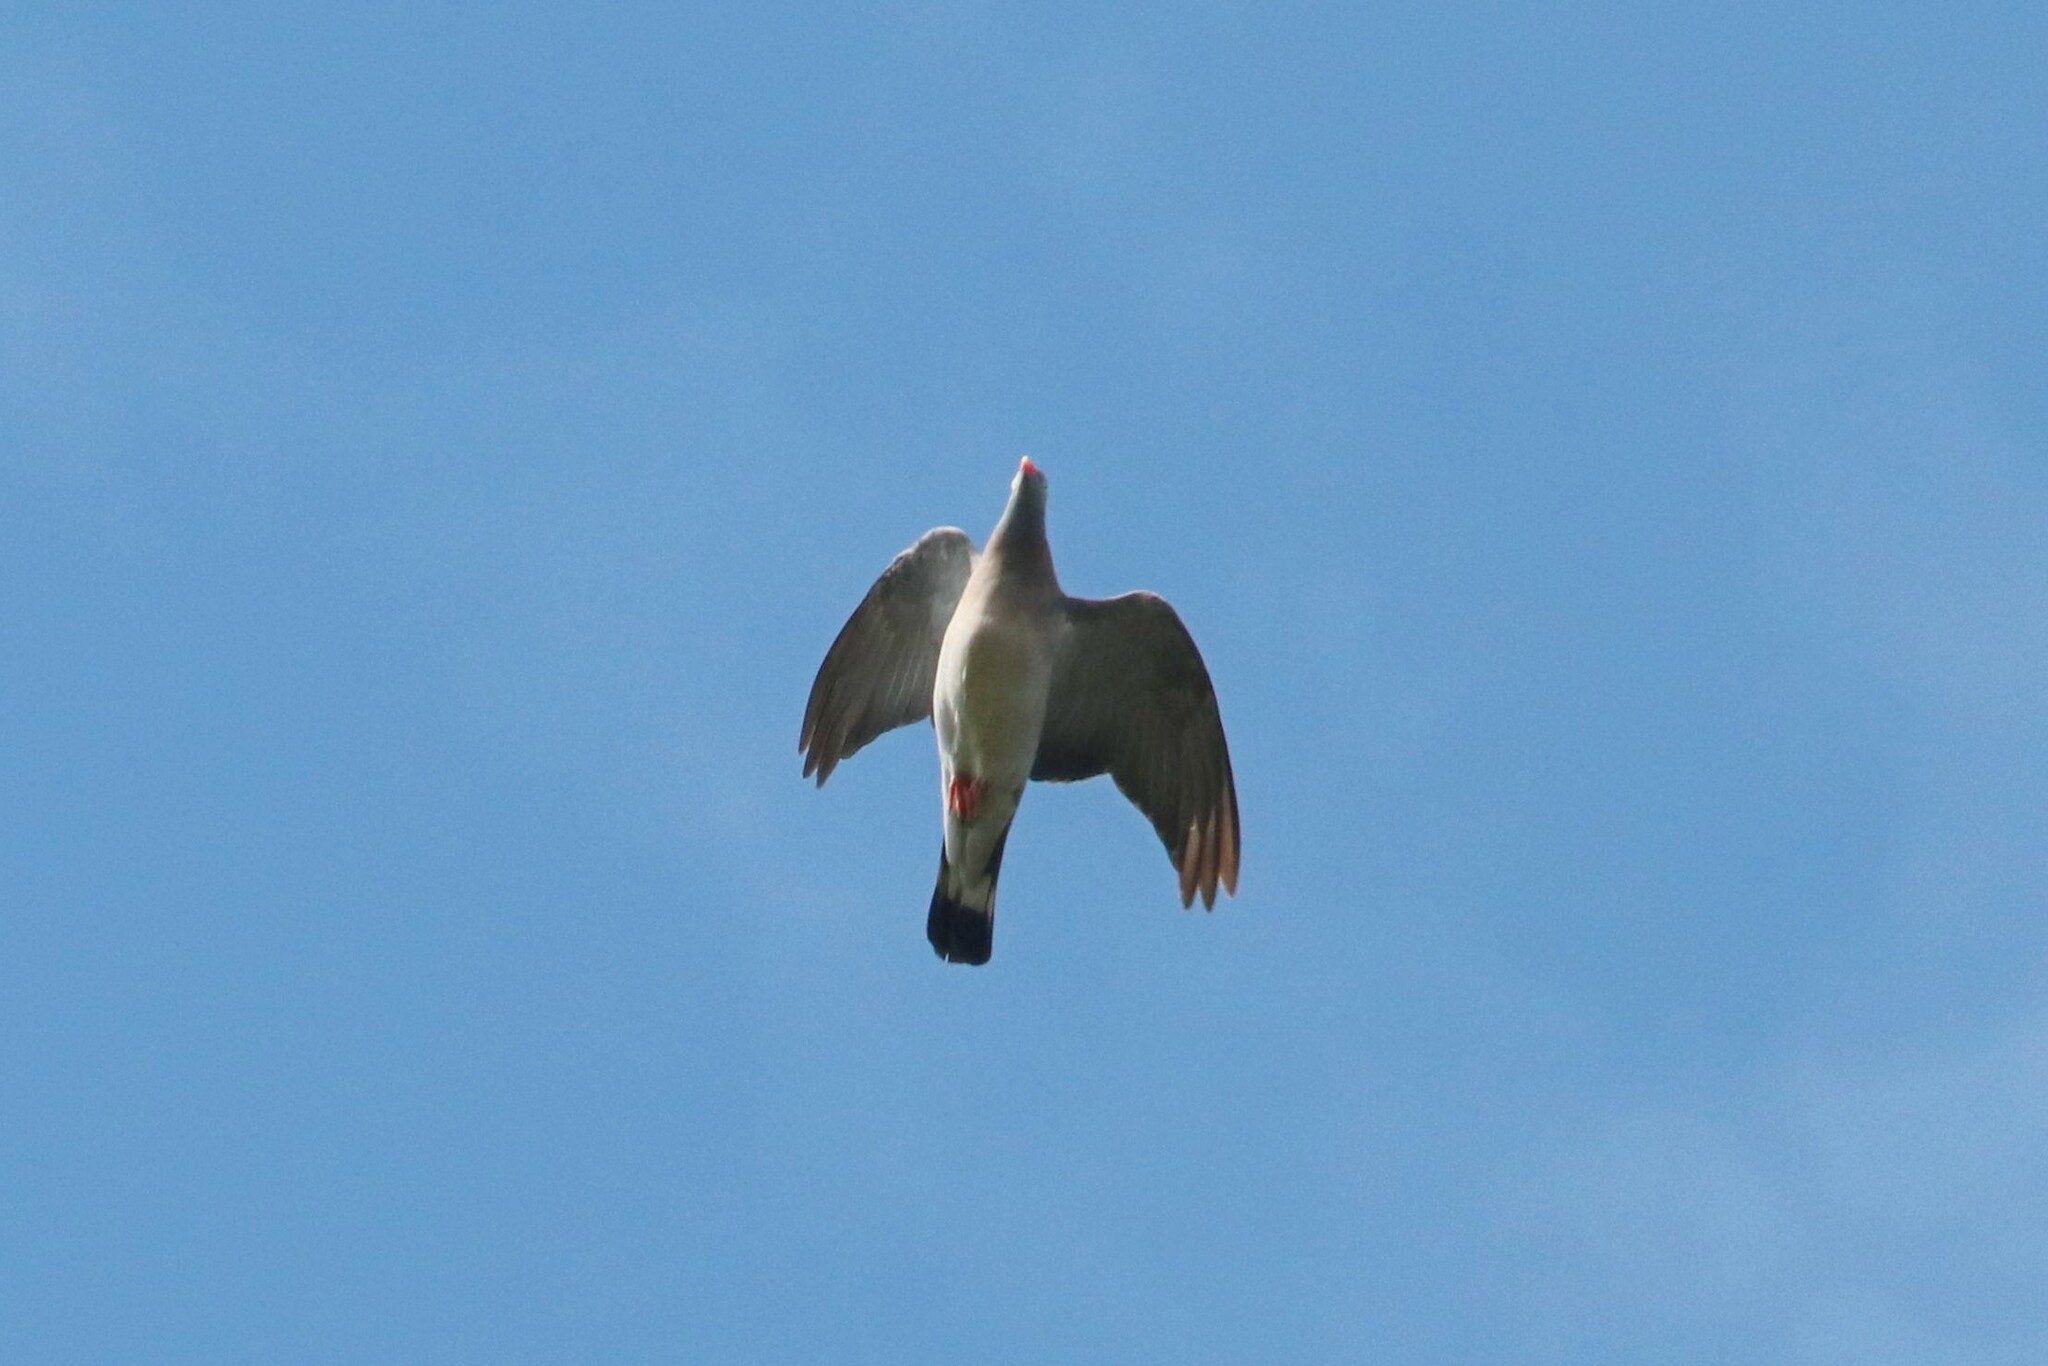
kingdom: Animalia
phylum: Chordata
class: Aves
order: Columbiformes
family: Columbidae
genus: Columba
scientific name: Columba palumbus
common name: Common wood pigeon
